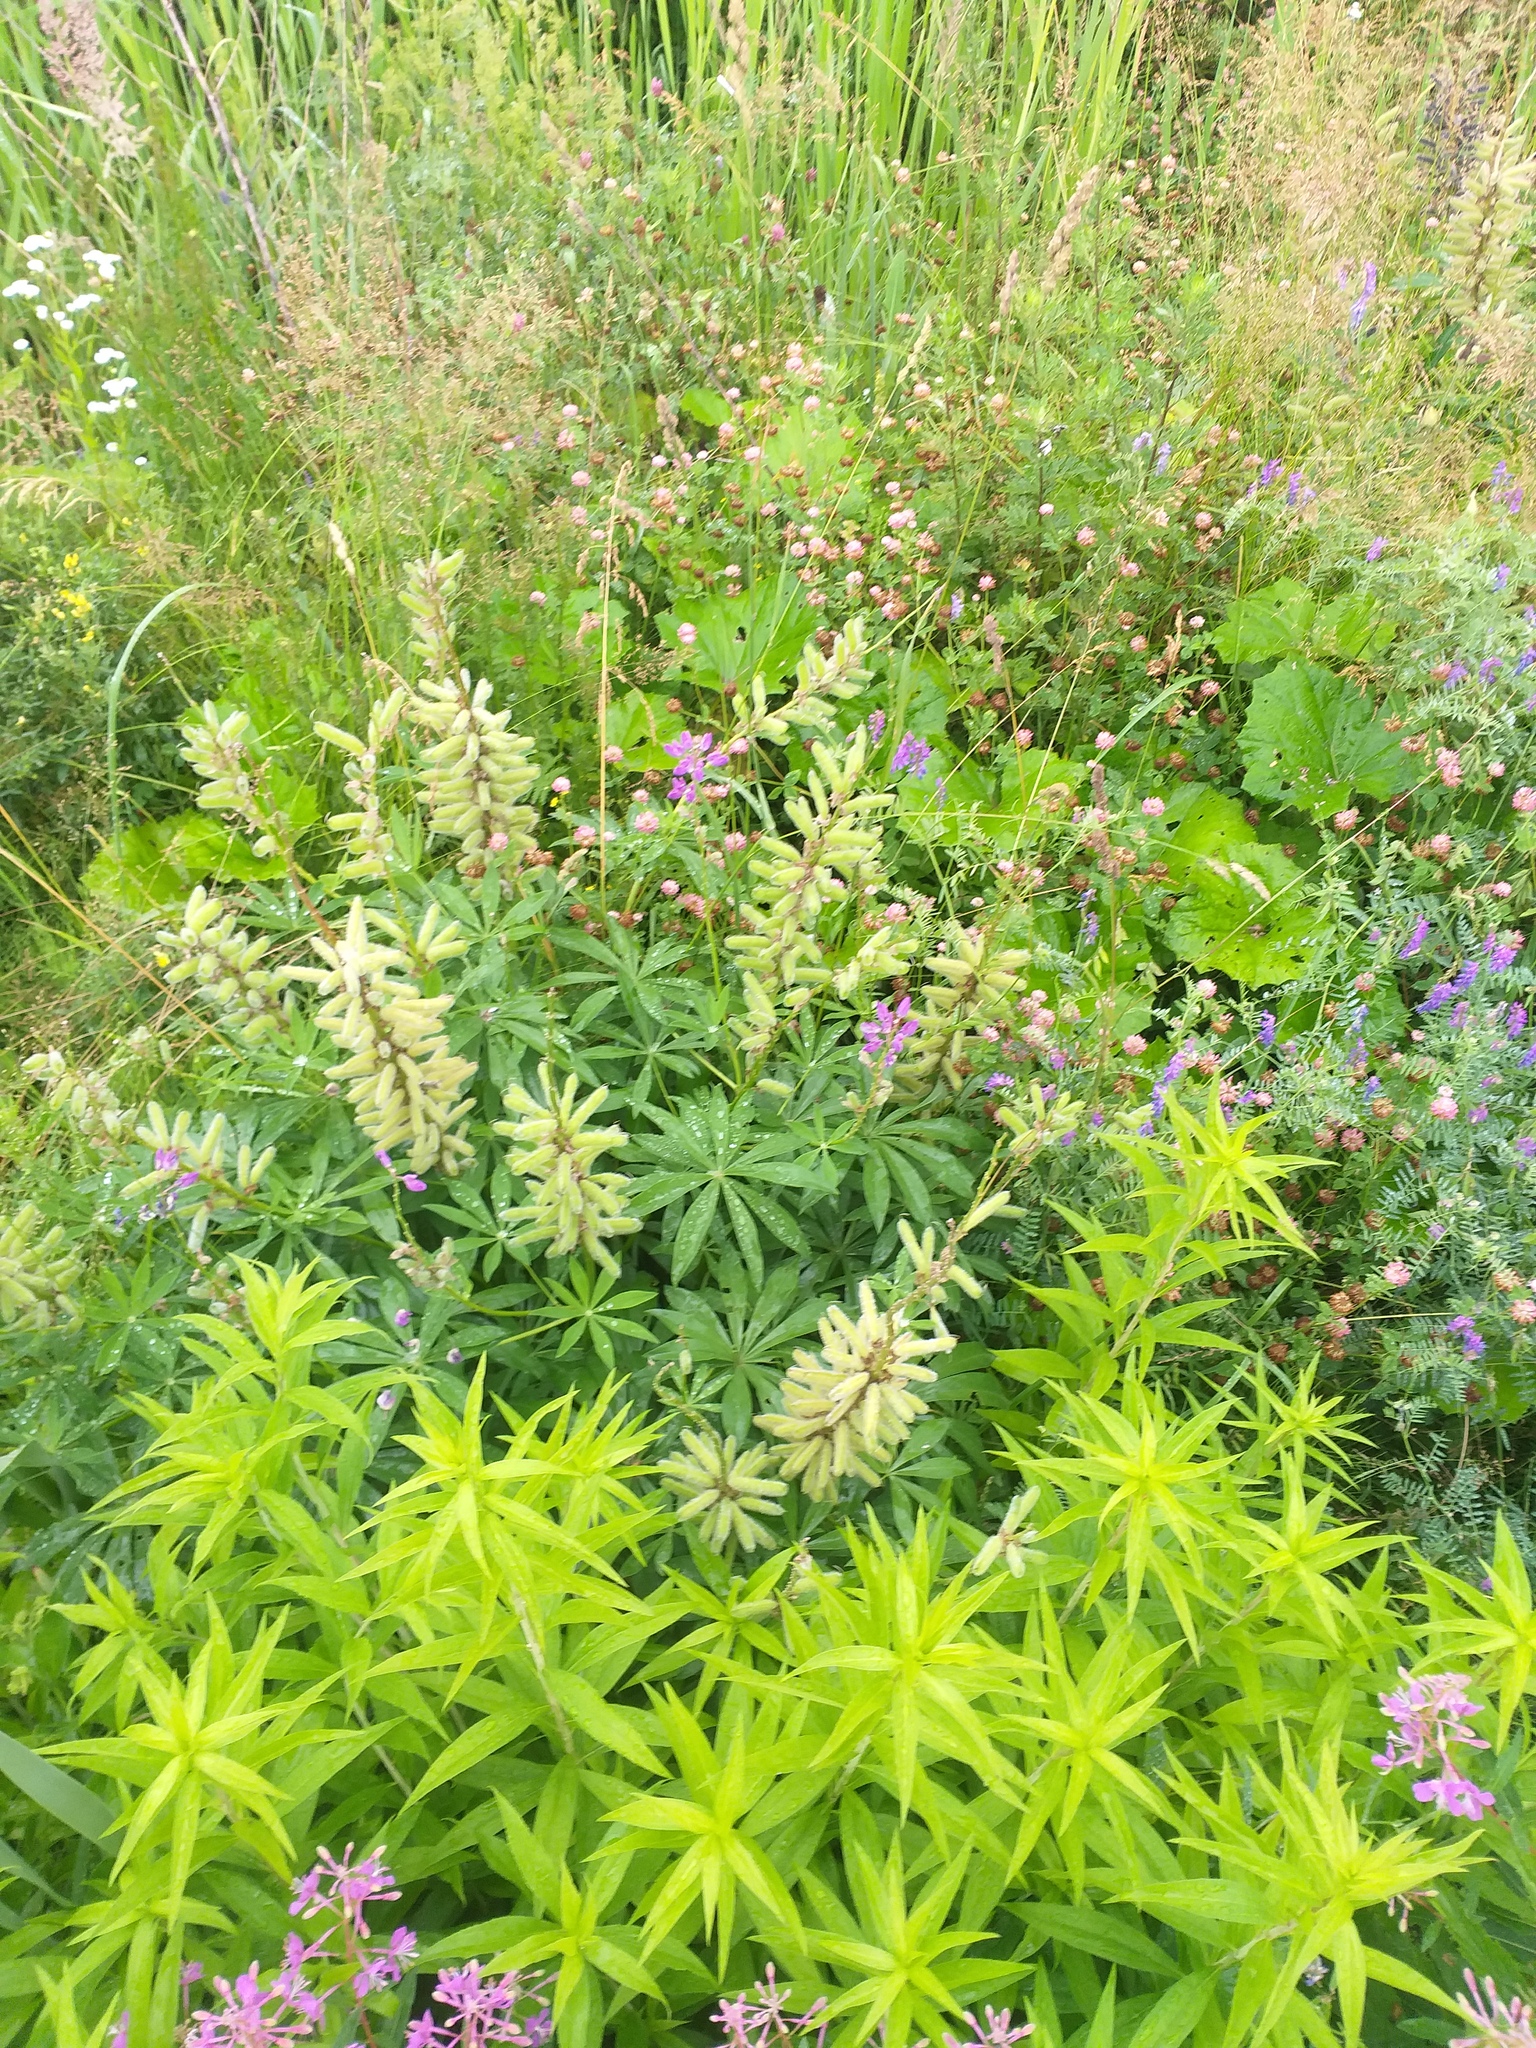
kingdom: Plantae
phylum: Tracheophyta
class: Magnoliopsida
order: Fabales
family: Fabaceae
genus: Lupinus
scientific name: Lupinus polyphyllus
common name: Garden lupin
